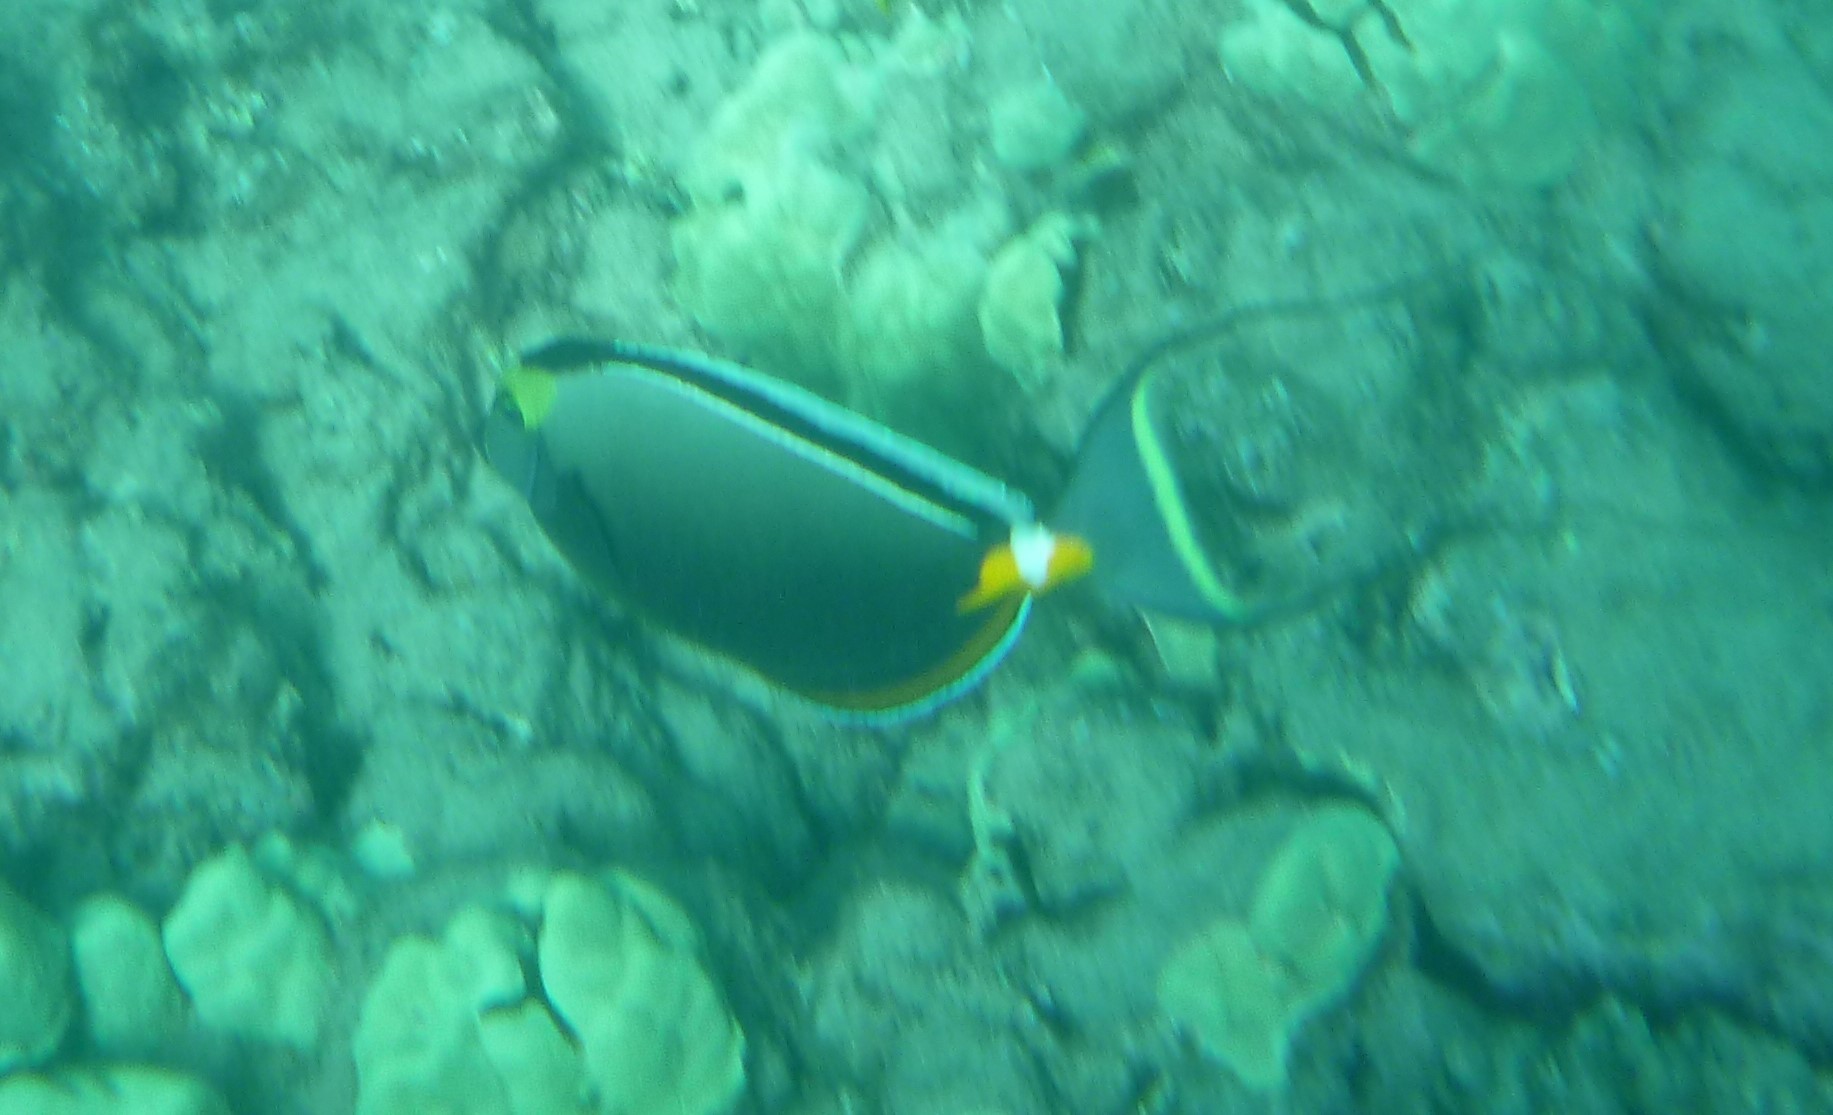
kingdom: Animalia
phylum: Chordata
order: Perciformes
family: Acanthuridae
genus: Naso
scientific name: Naso lituratus
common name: Orangespine unicornfish
